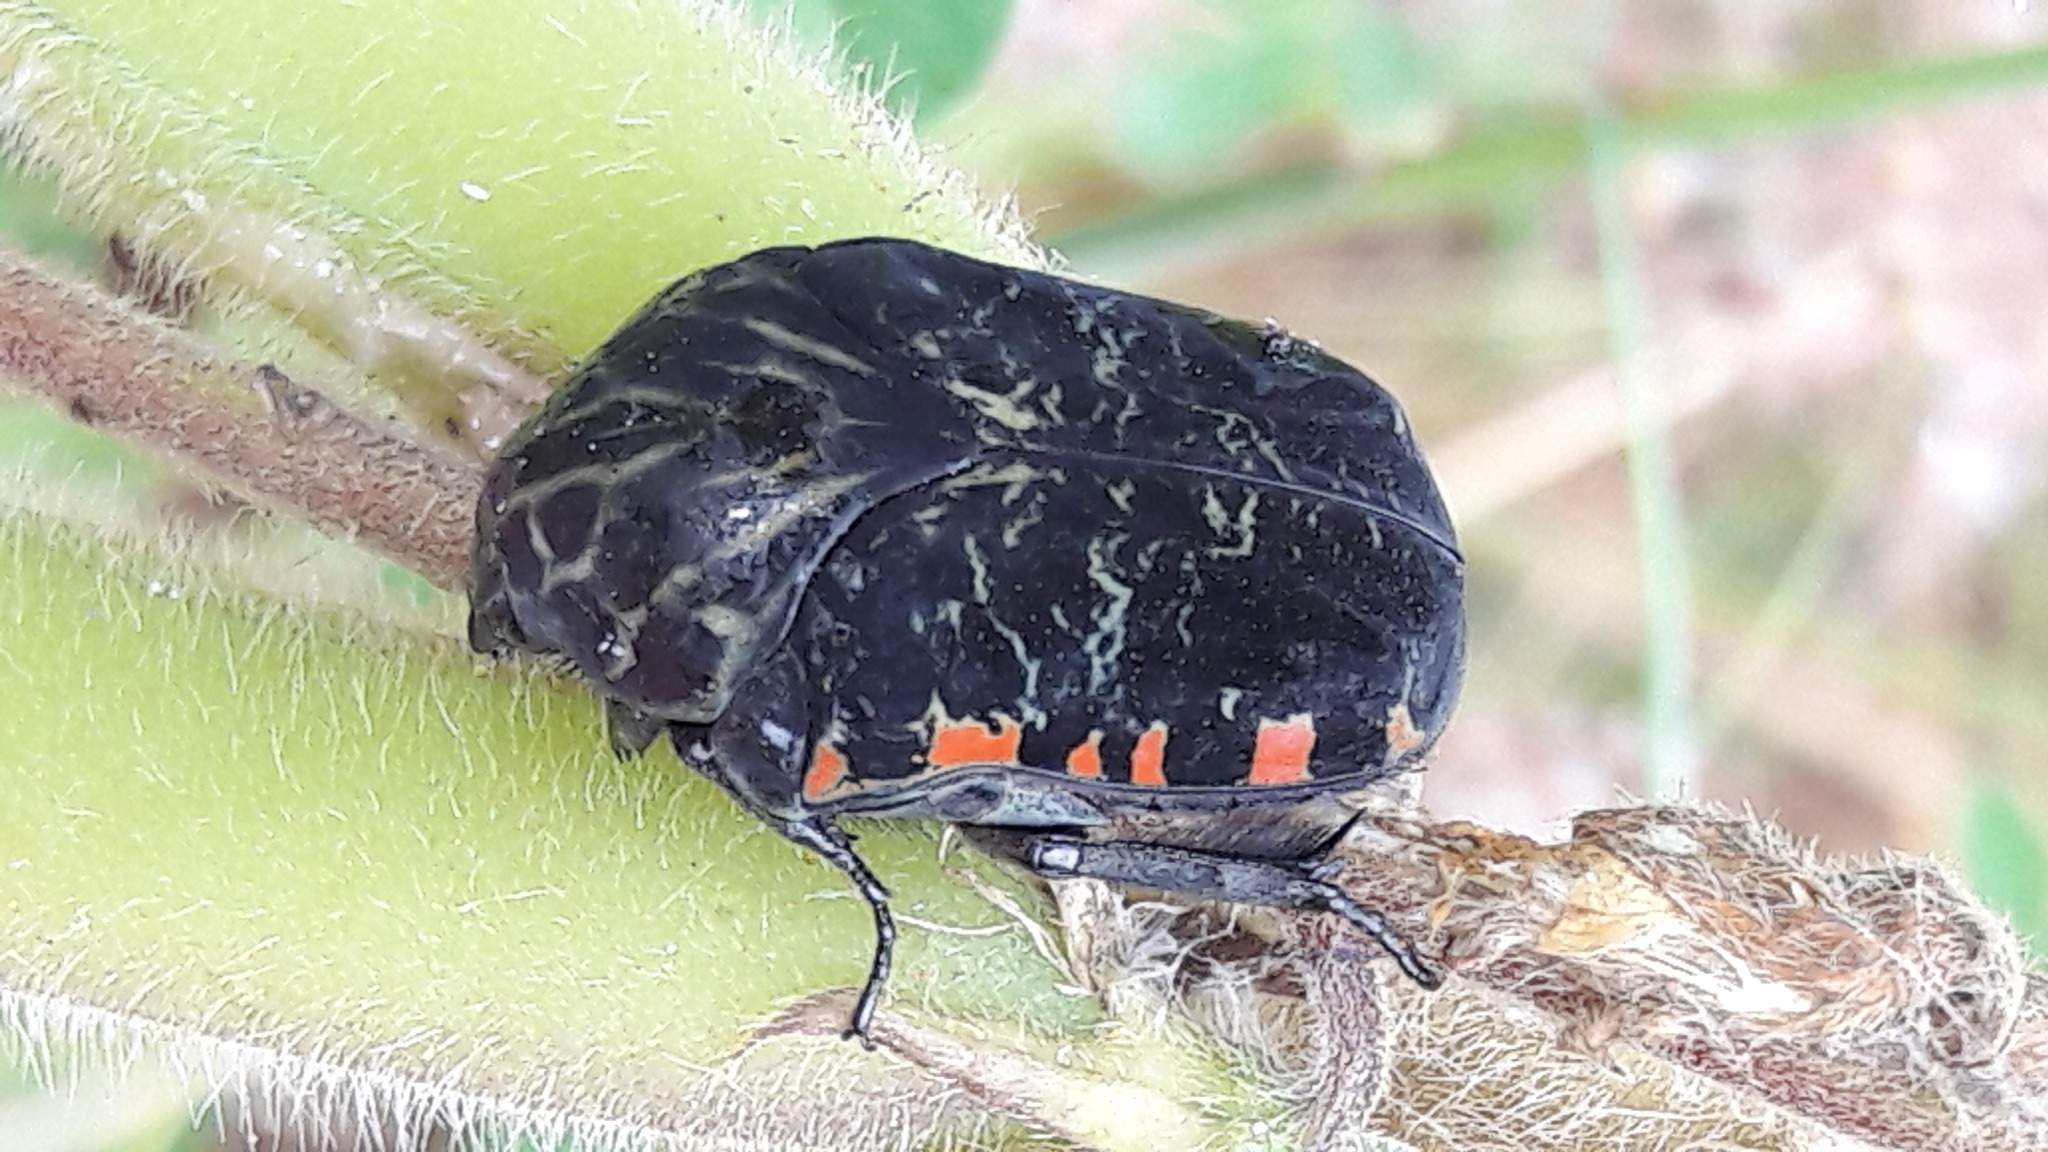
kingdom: Animalia
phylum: Arthropoda
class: Insecta
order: Coleoptera
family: Scarabaeidae
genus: Gymnetis
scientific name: Gymnetis rufilatris
